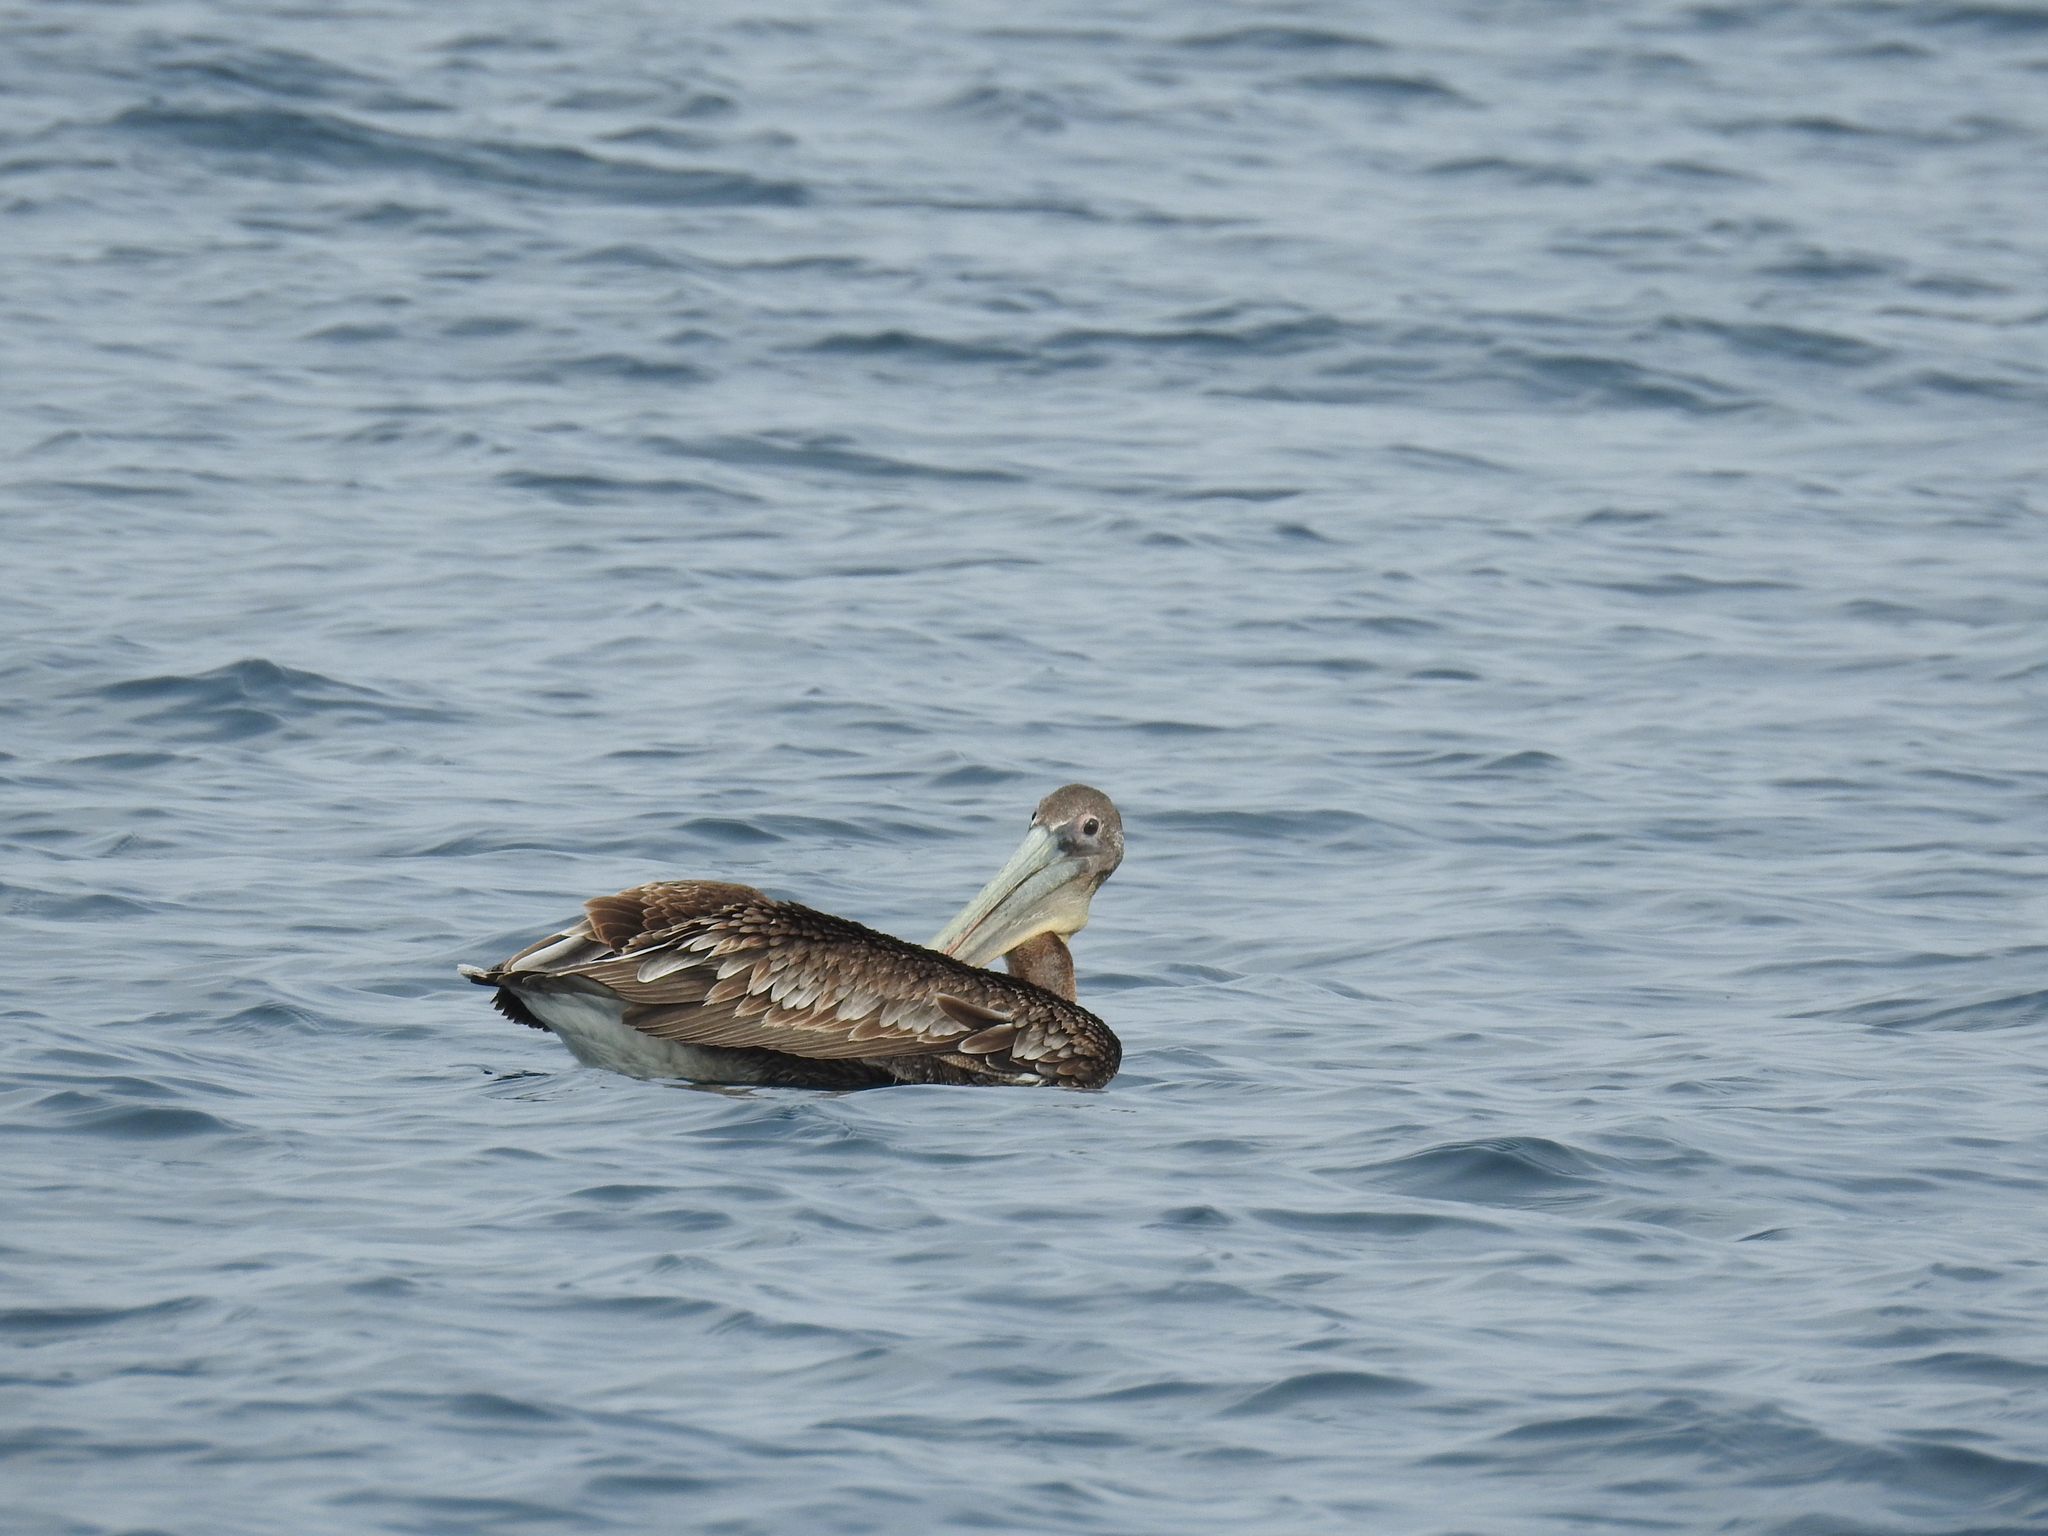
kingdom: Animalia
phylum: Chordata
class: Aves
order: Pelecaniformes
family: Pelecanidae
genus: Pelecanus
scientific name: Pelecanus occidentalis
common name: Brown pelican
